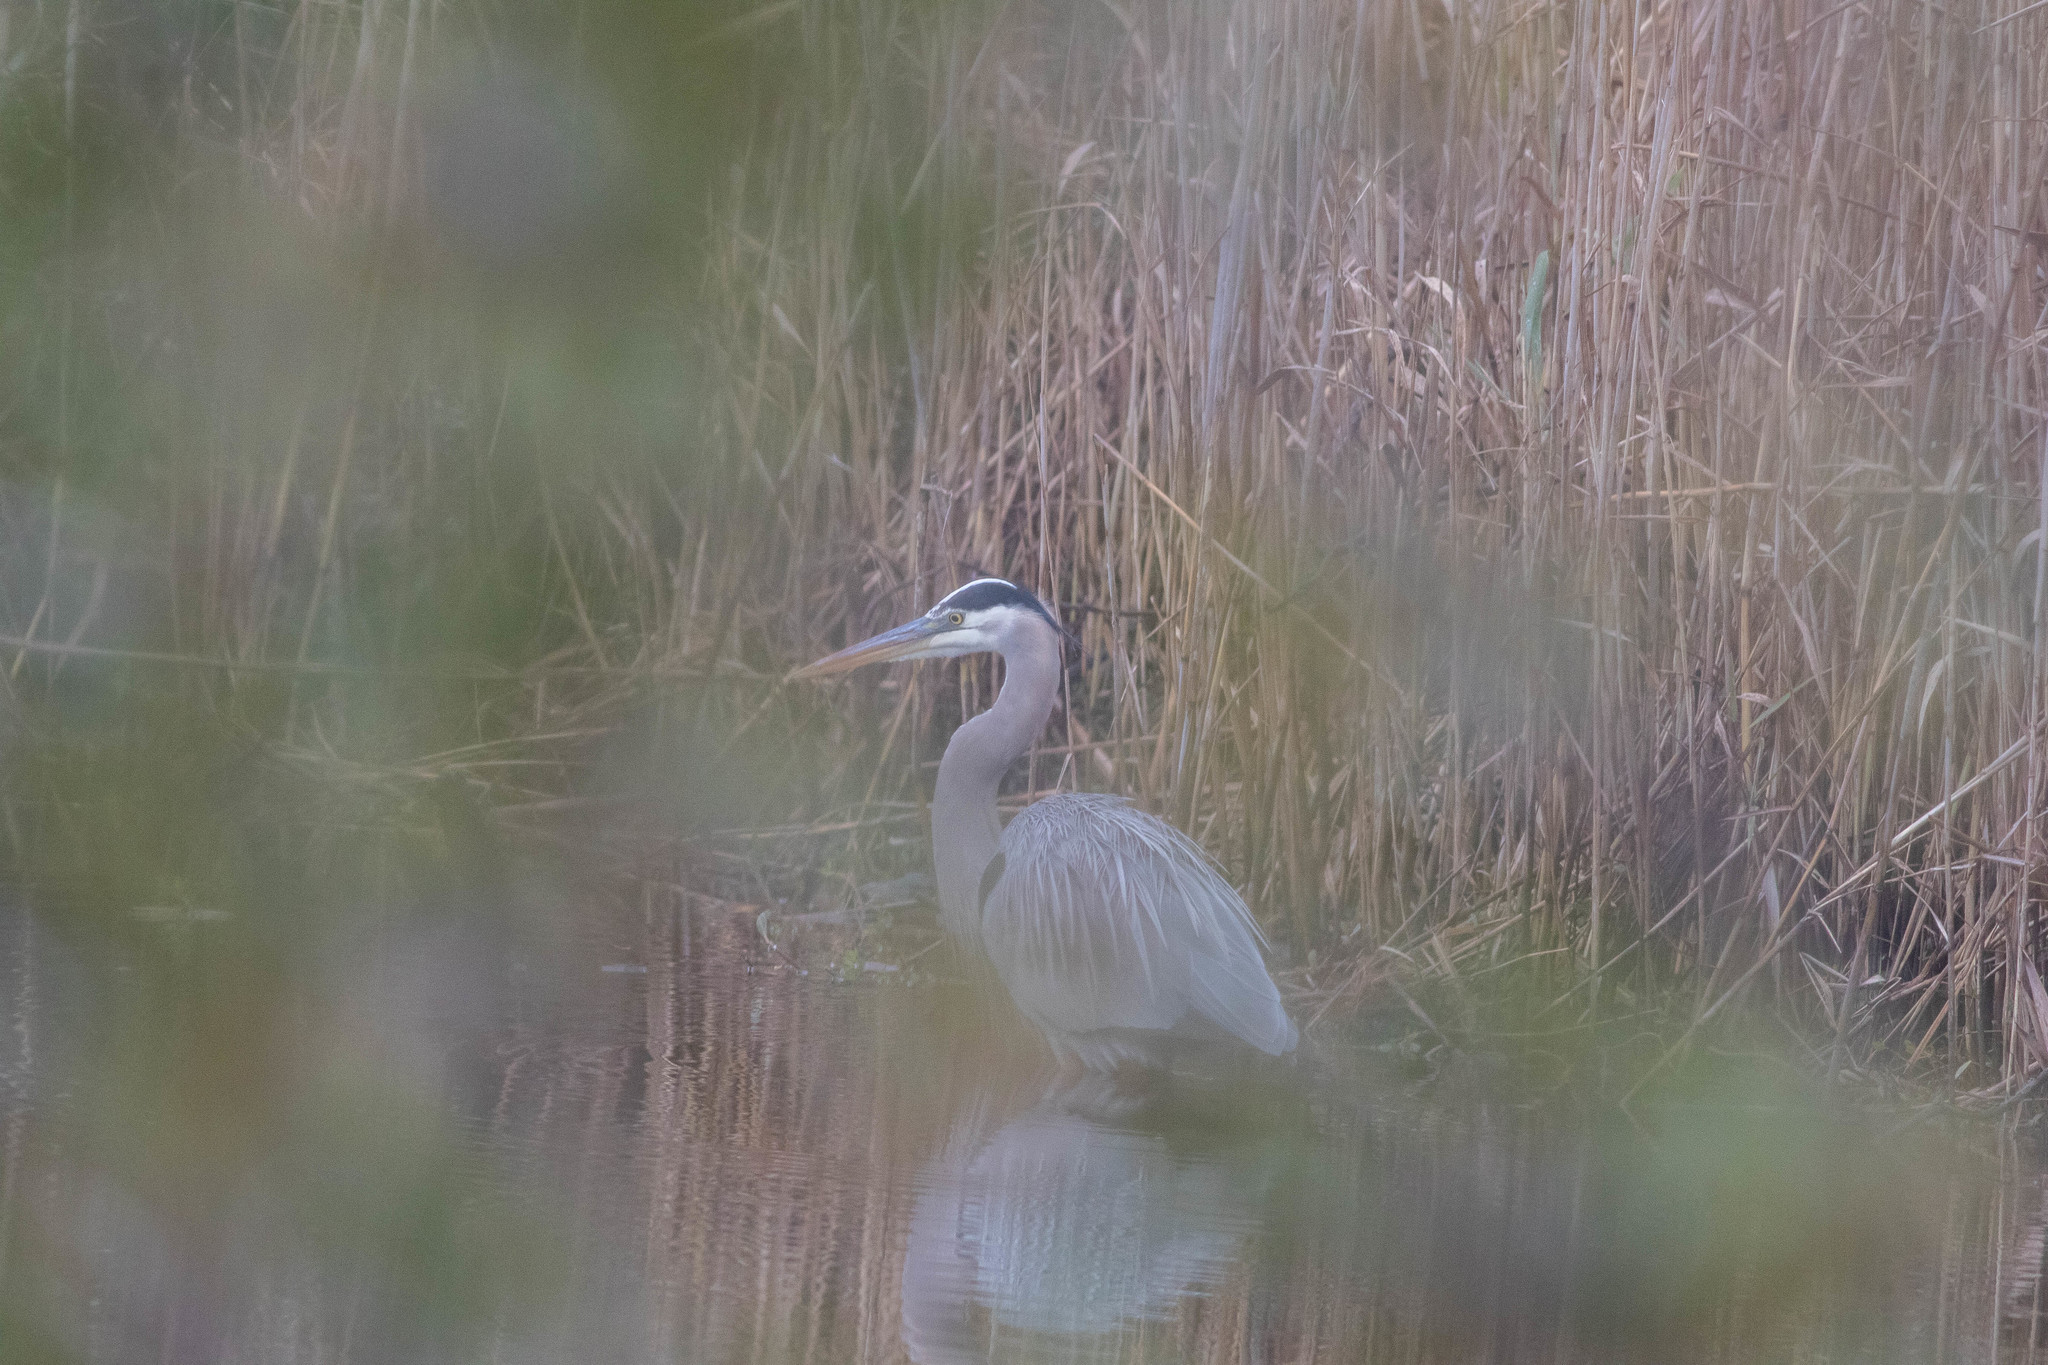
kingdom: Animalia
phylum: Chordata
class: Aves
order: Pelecaniformes
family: Ardeidae
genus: Ardea
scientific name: Ardea herodias
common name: Great blue heron
